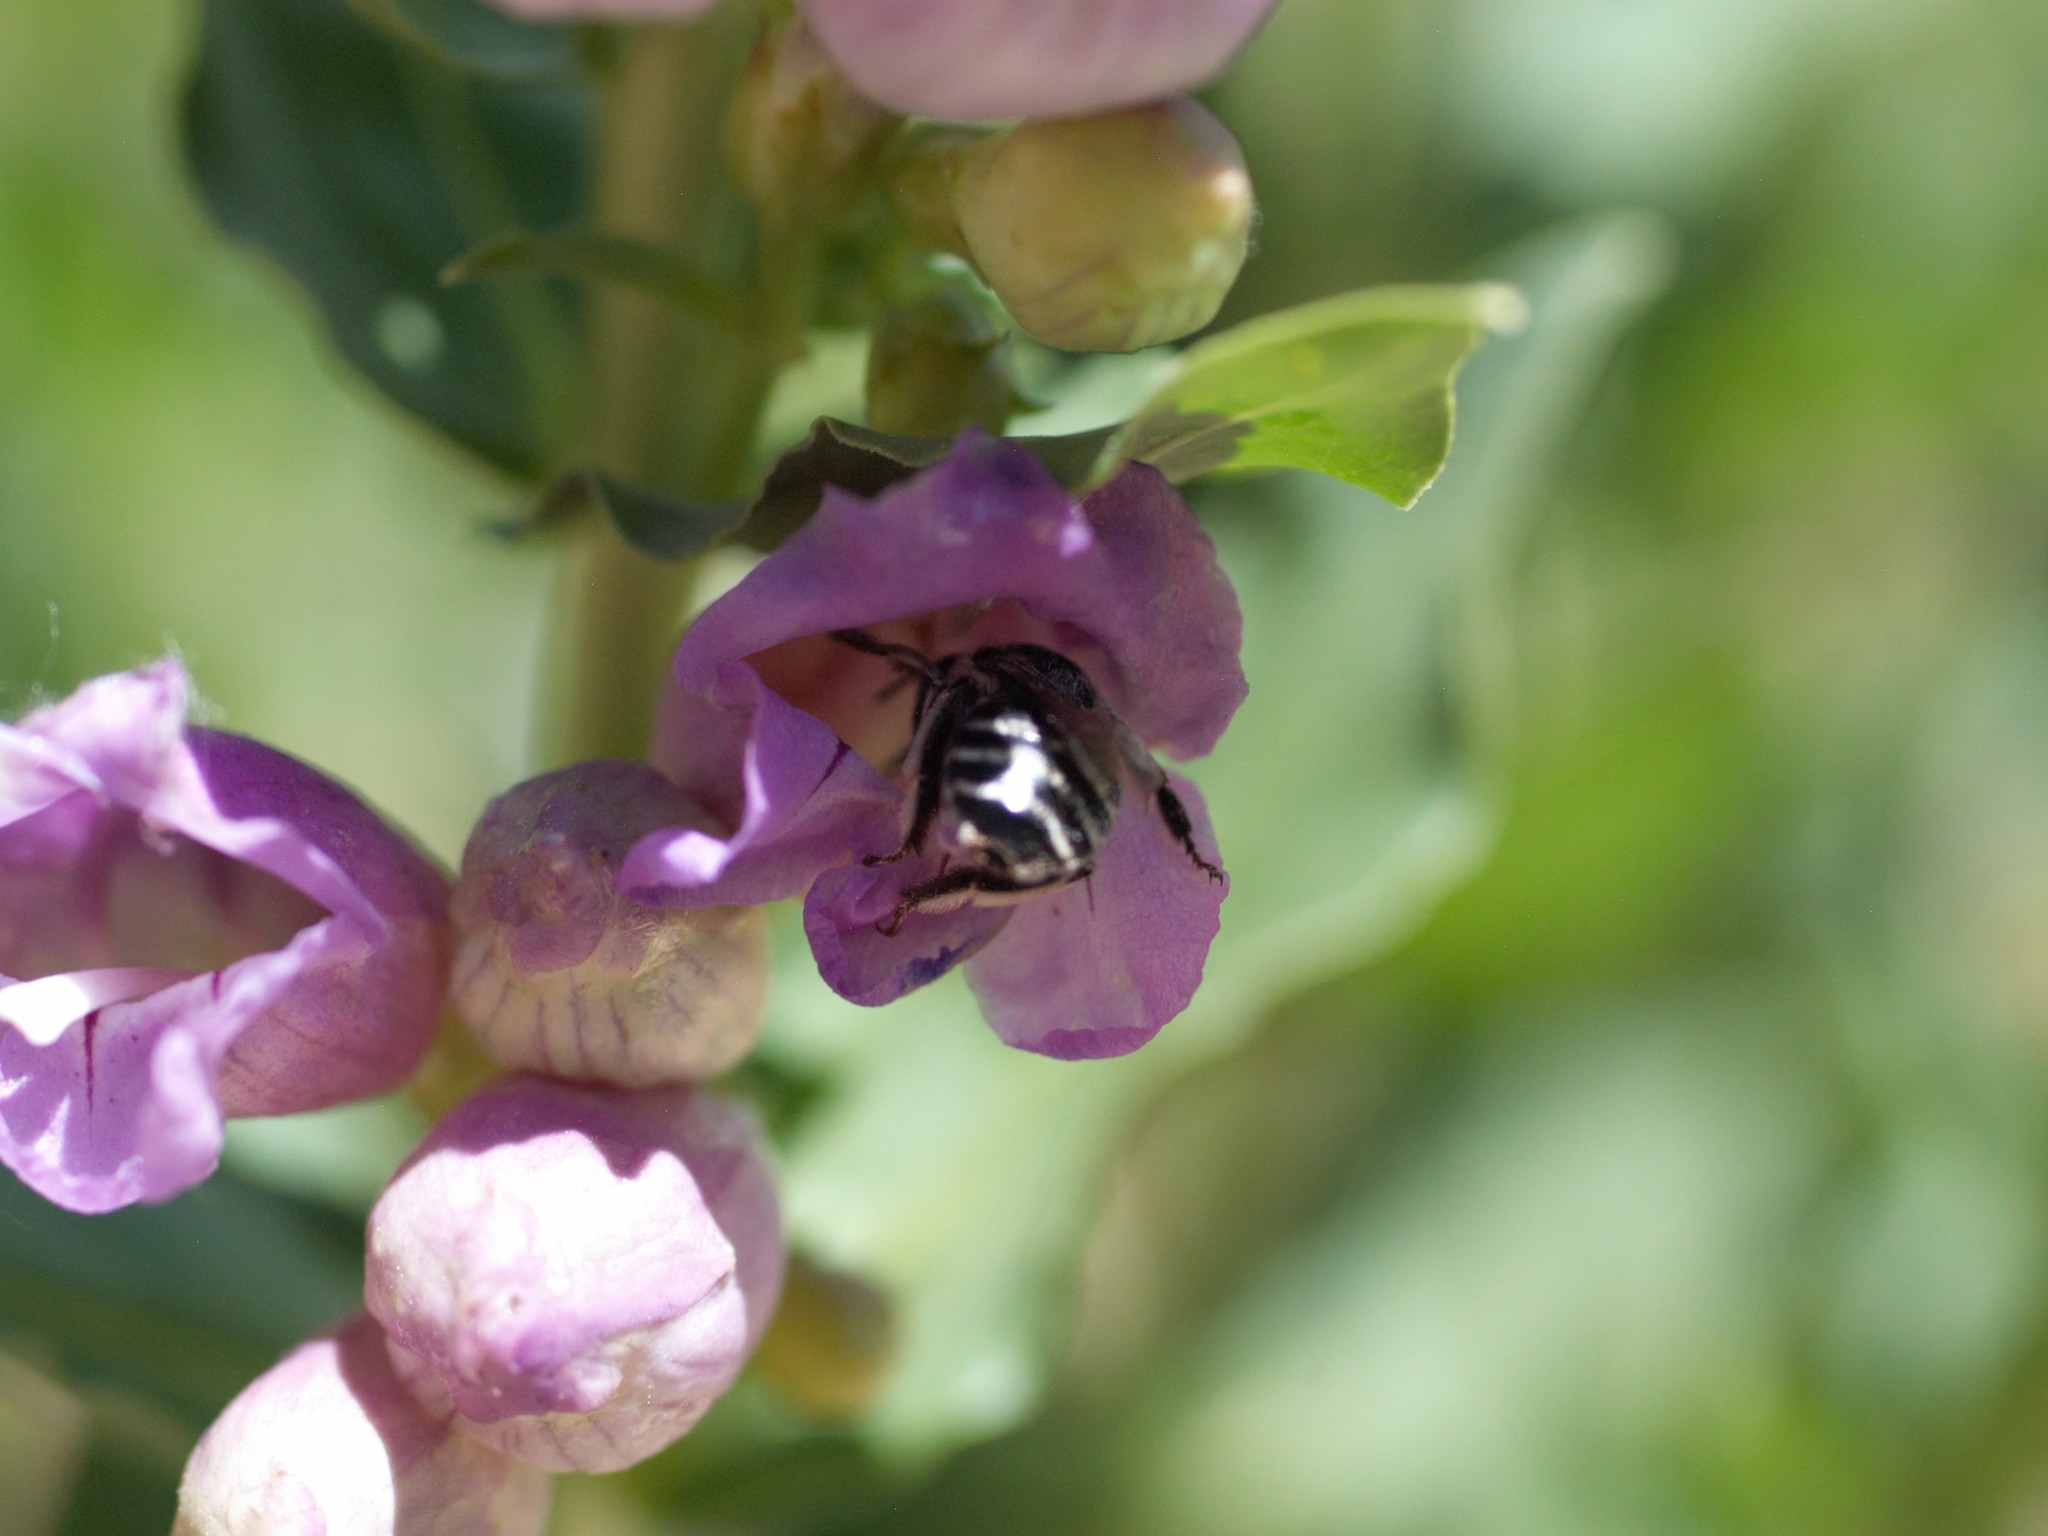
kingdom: Animalia
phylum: Arthropoda
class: Insecta
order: Hymenoptera
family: Apidae
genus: Anthophora
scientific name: Anthophora
